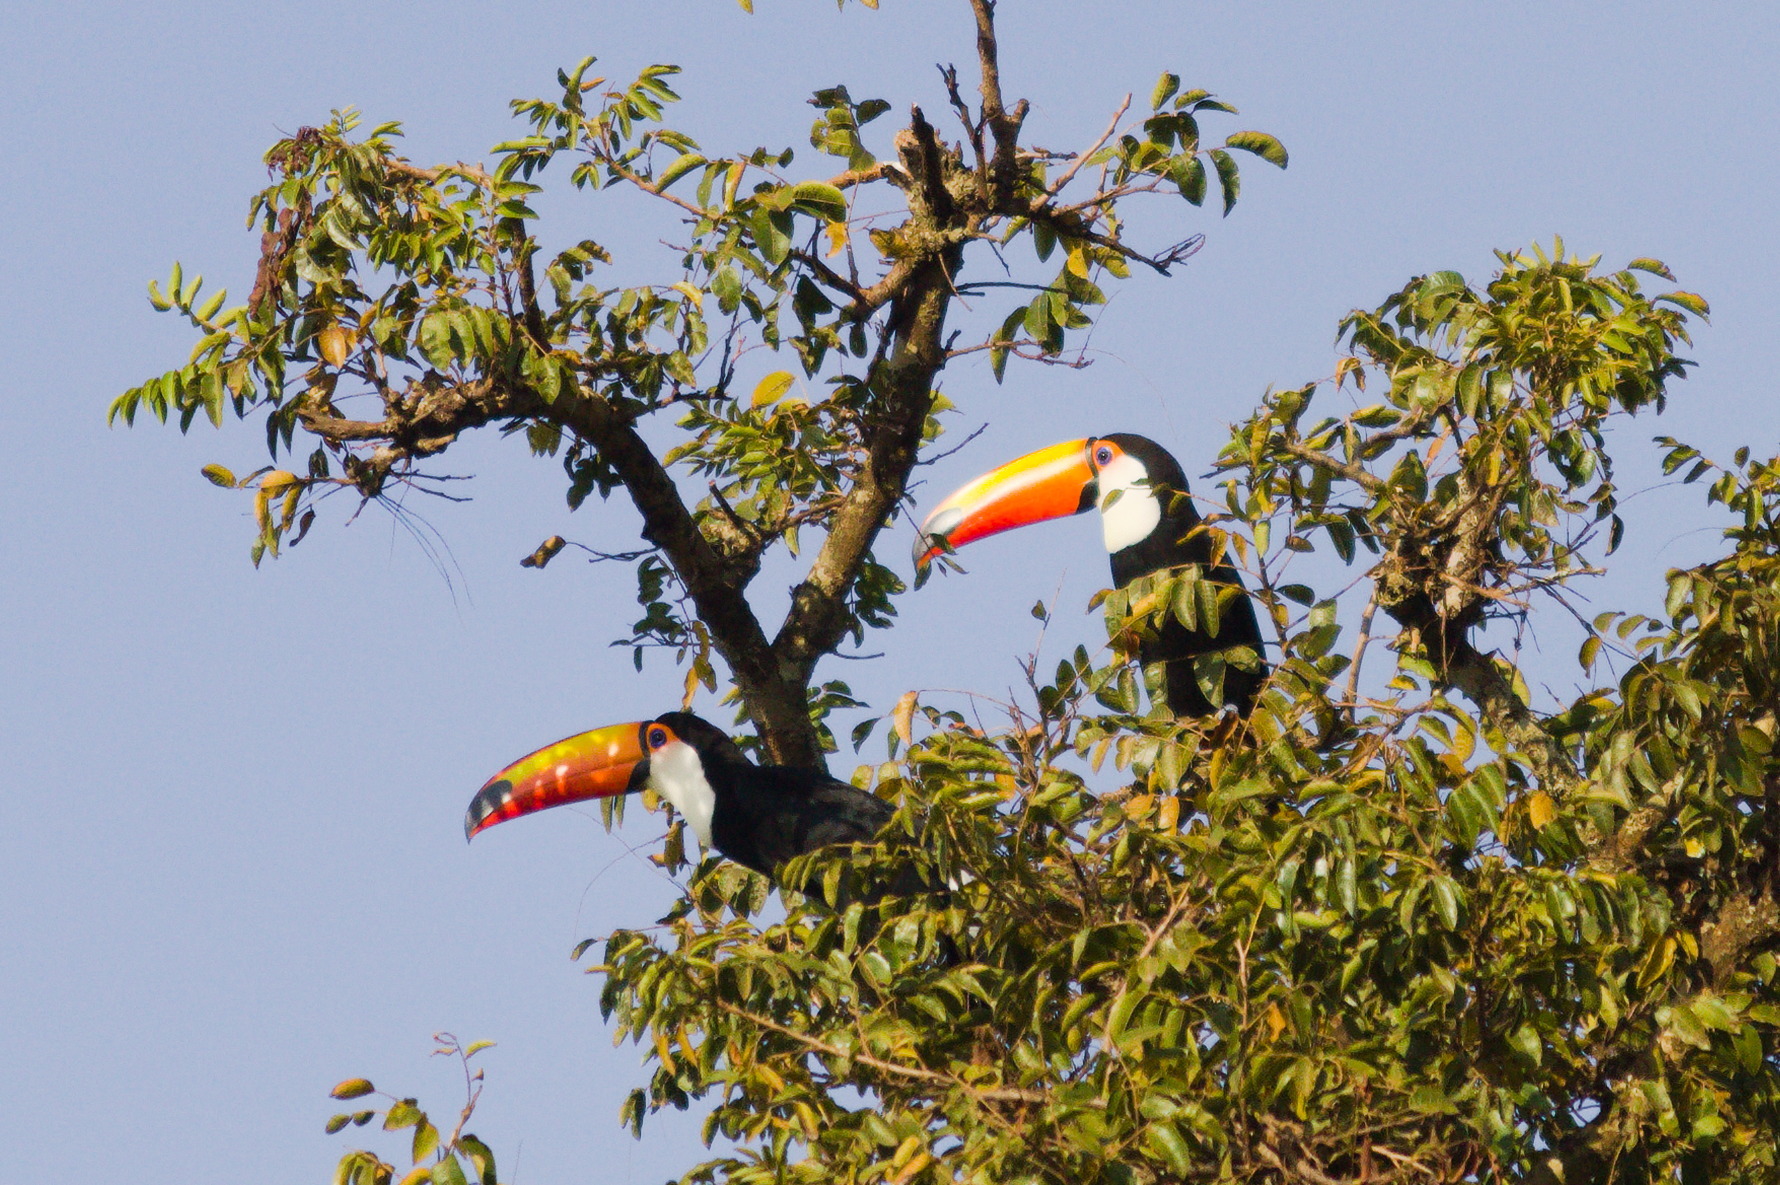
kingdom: Animalia
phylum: Chordata
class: Aves
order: Piciformes
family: Ramphastidae
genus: Ramphastos
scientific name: Ramphastos toco
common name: Toco toucan
